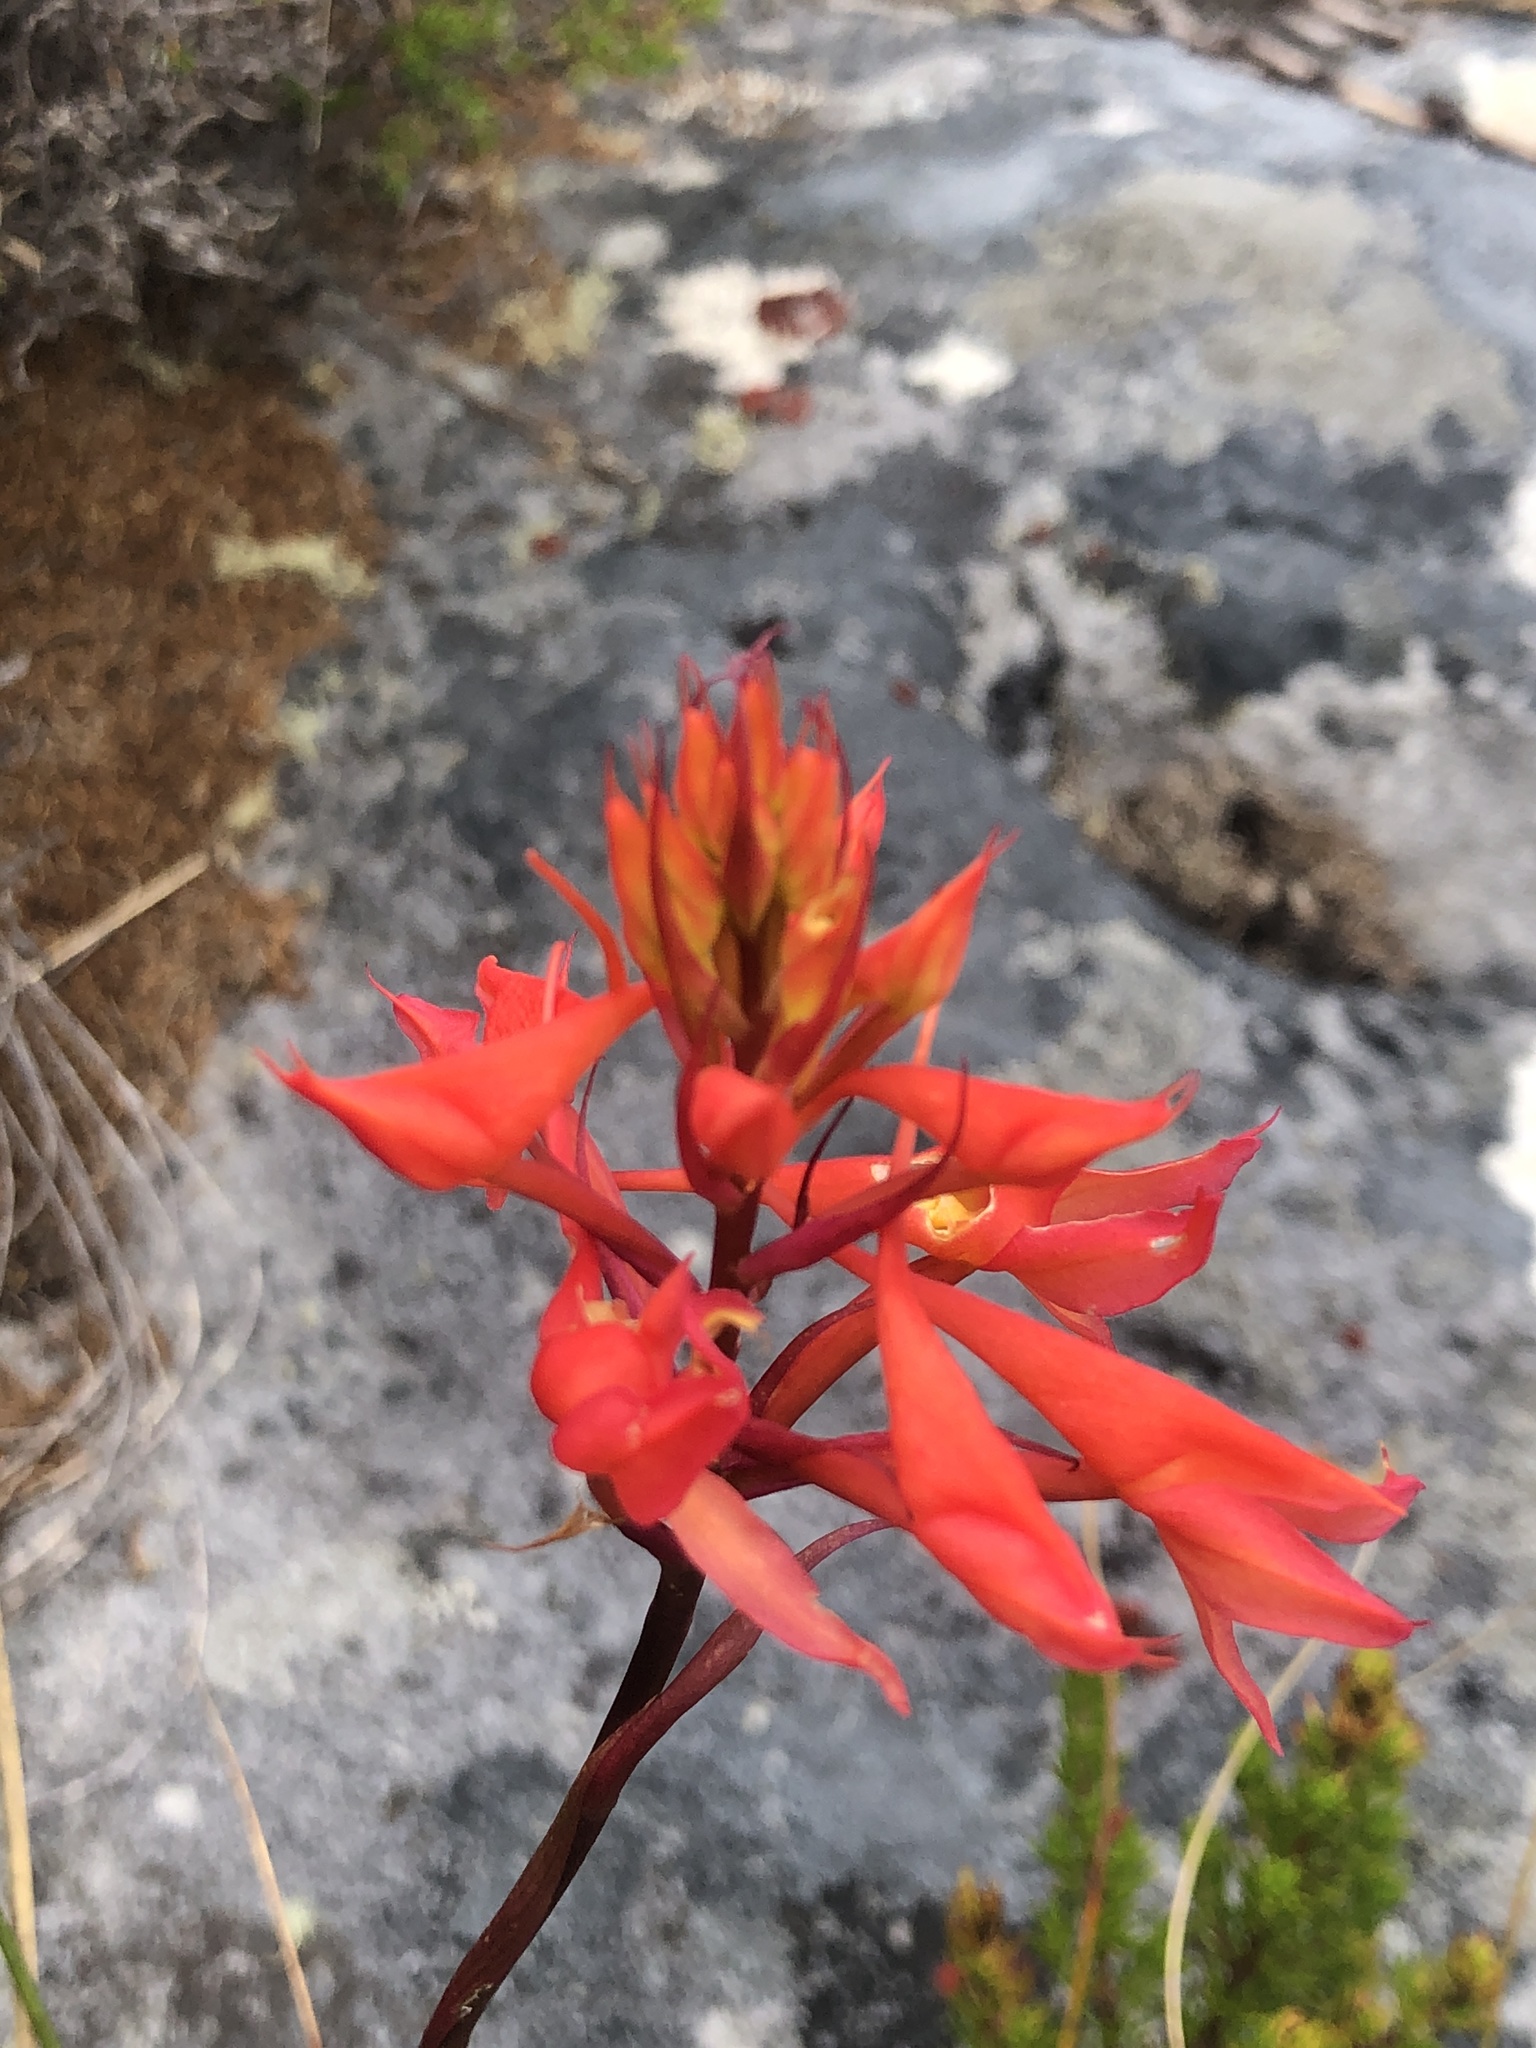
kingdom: Plantae
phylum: Tracheophyta
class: Liliopsida
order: Asparagales
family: Orchidaceae
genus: Disa
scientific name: Disa ferruginea
